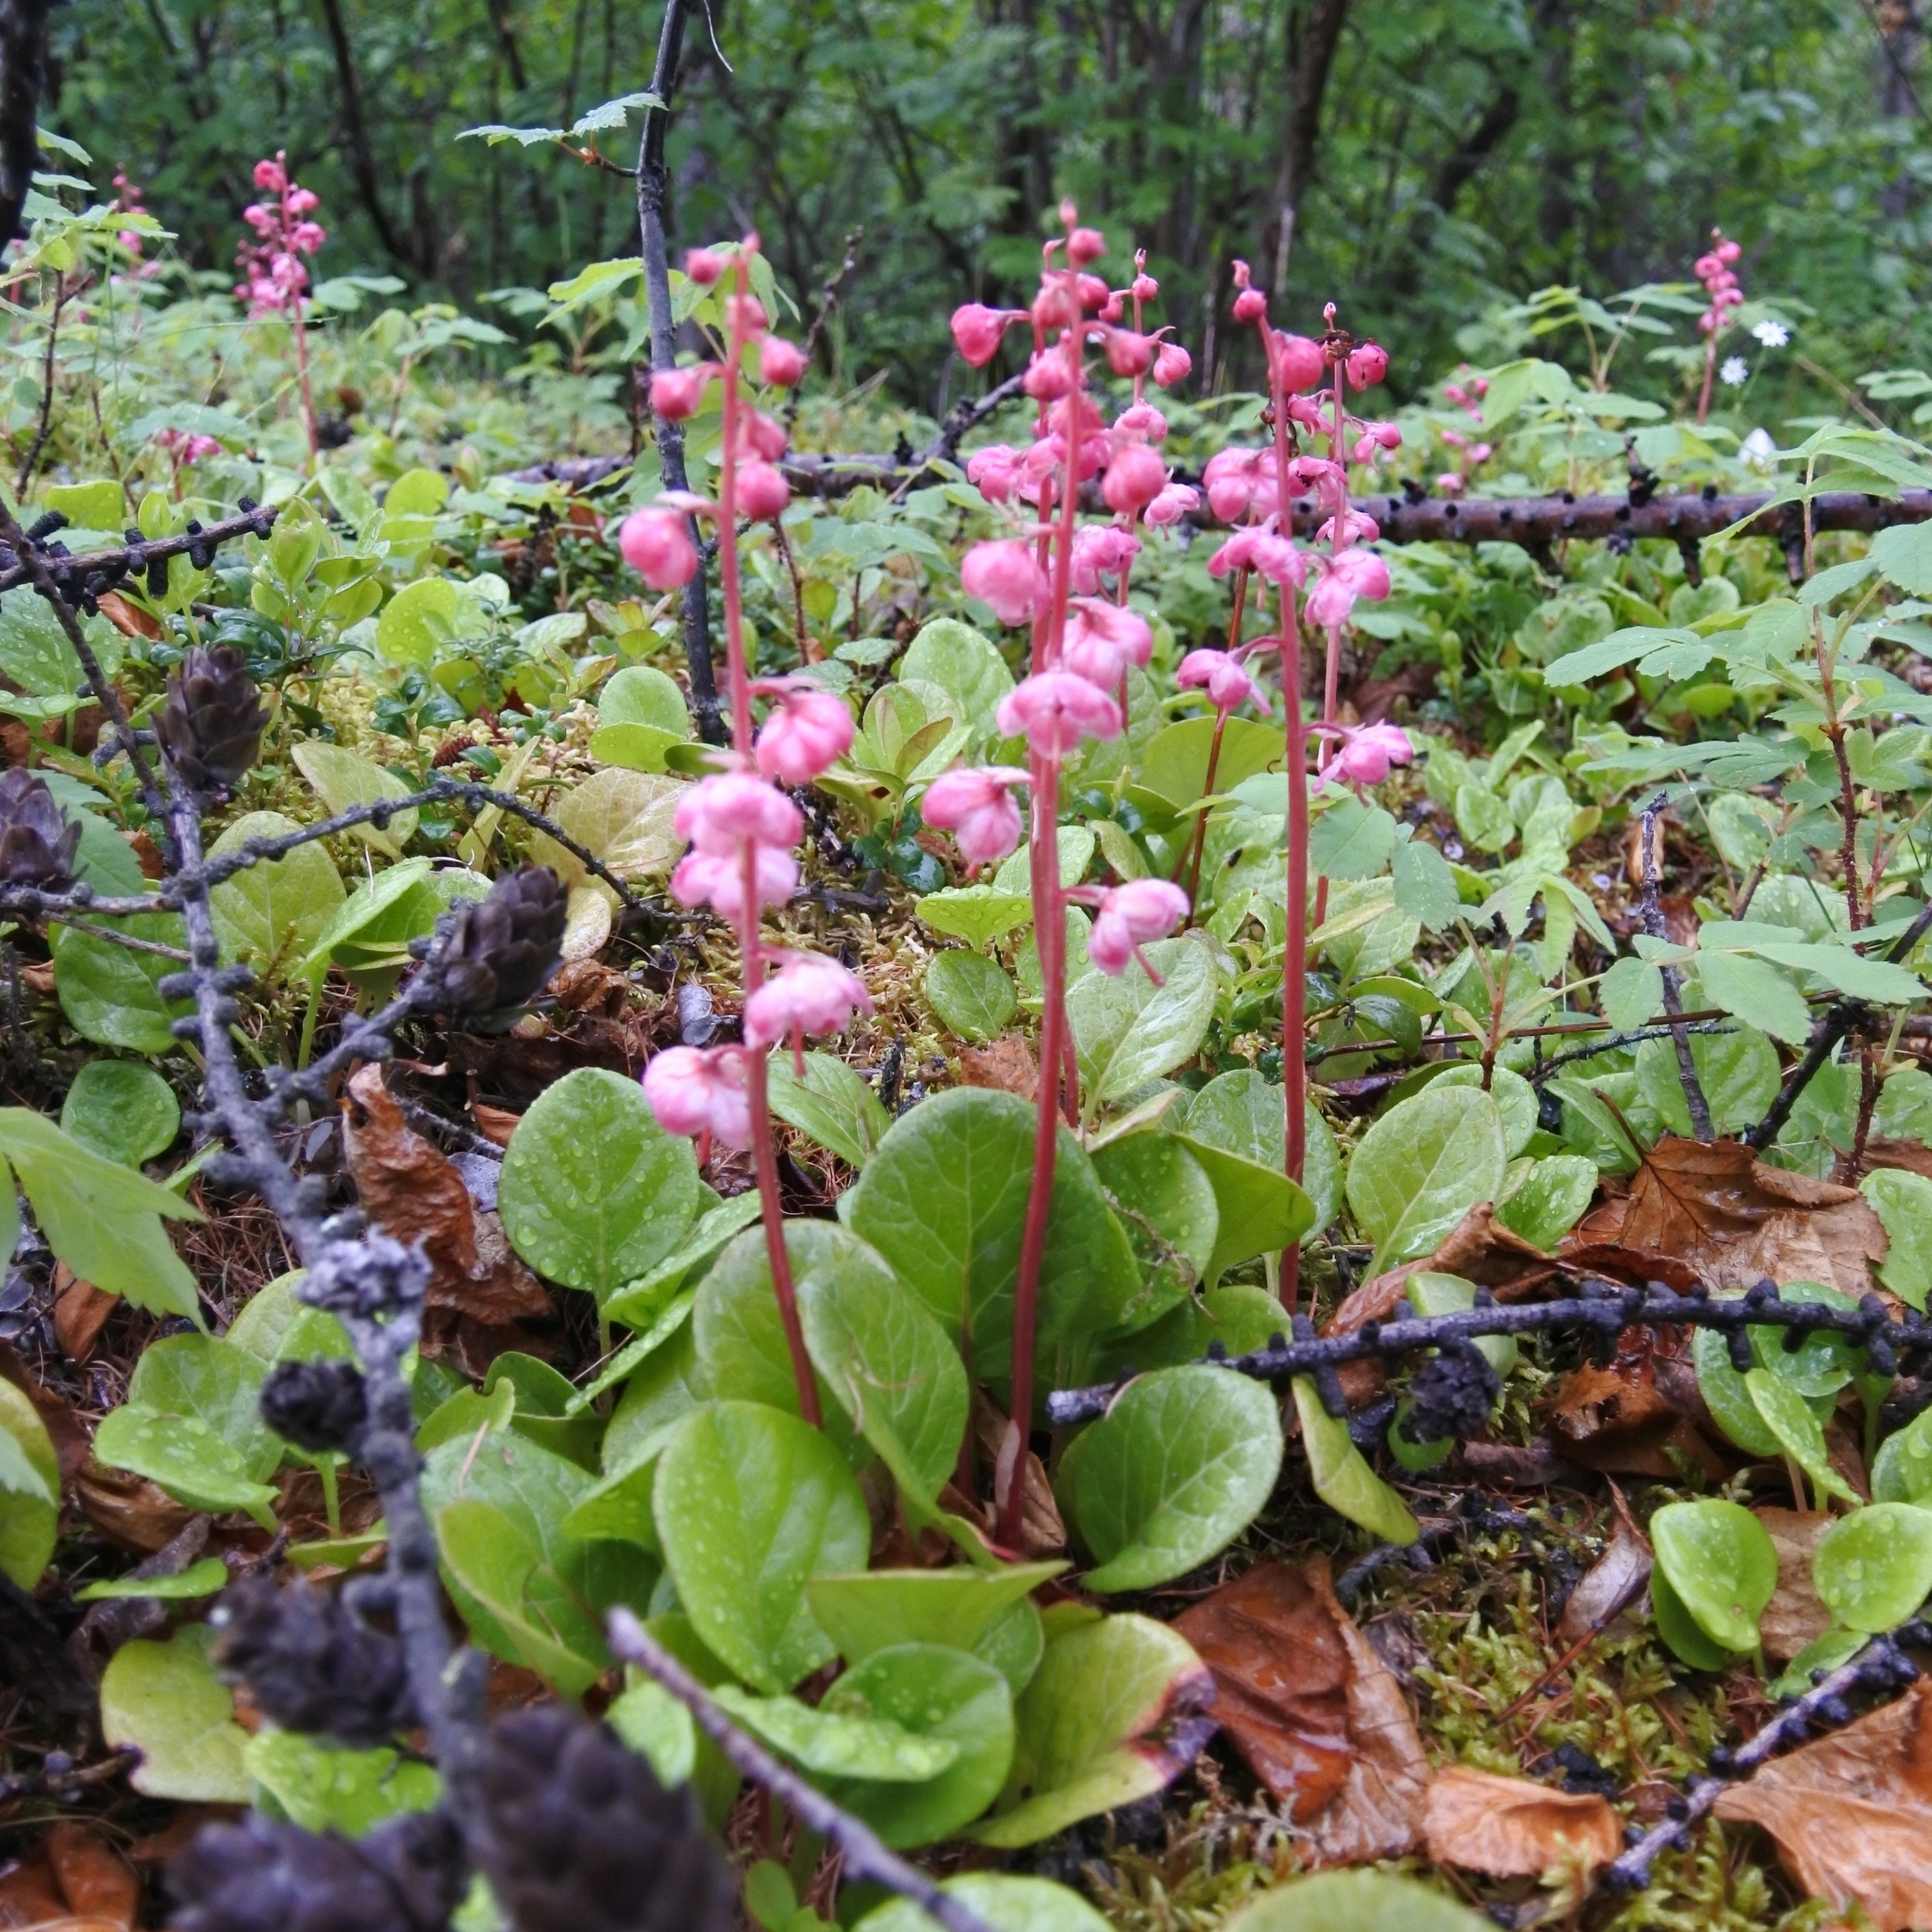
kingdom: Plantae
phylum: Tracheophyta
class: Magnoliopsida
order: Ericales
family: Ericaceae
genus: Pyrola
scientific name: Pyrola asarifolia
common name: Bog wintergreen
